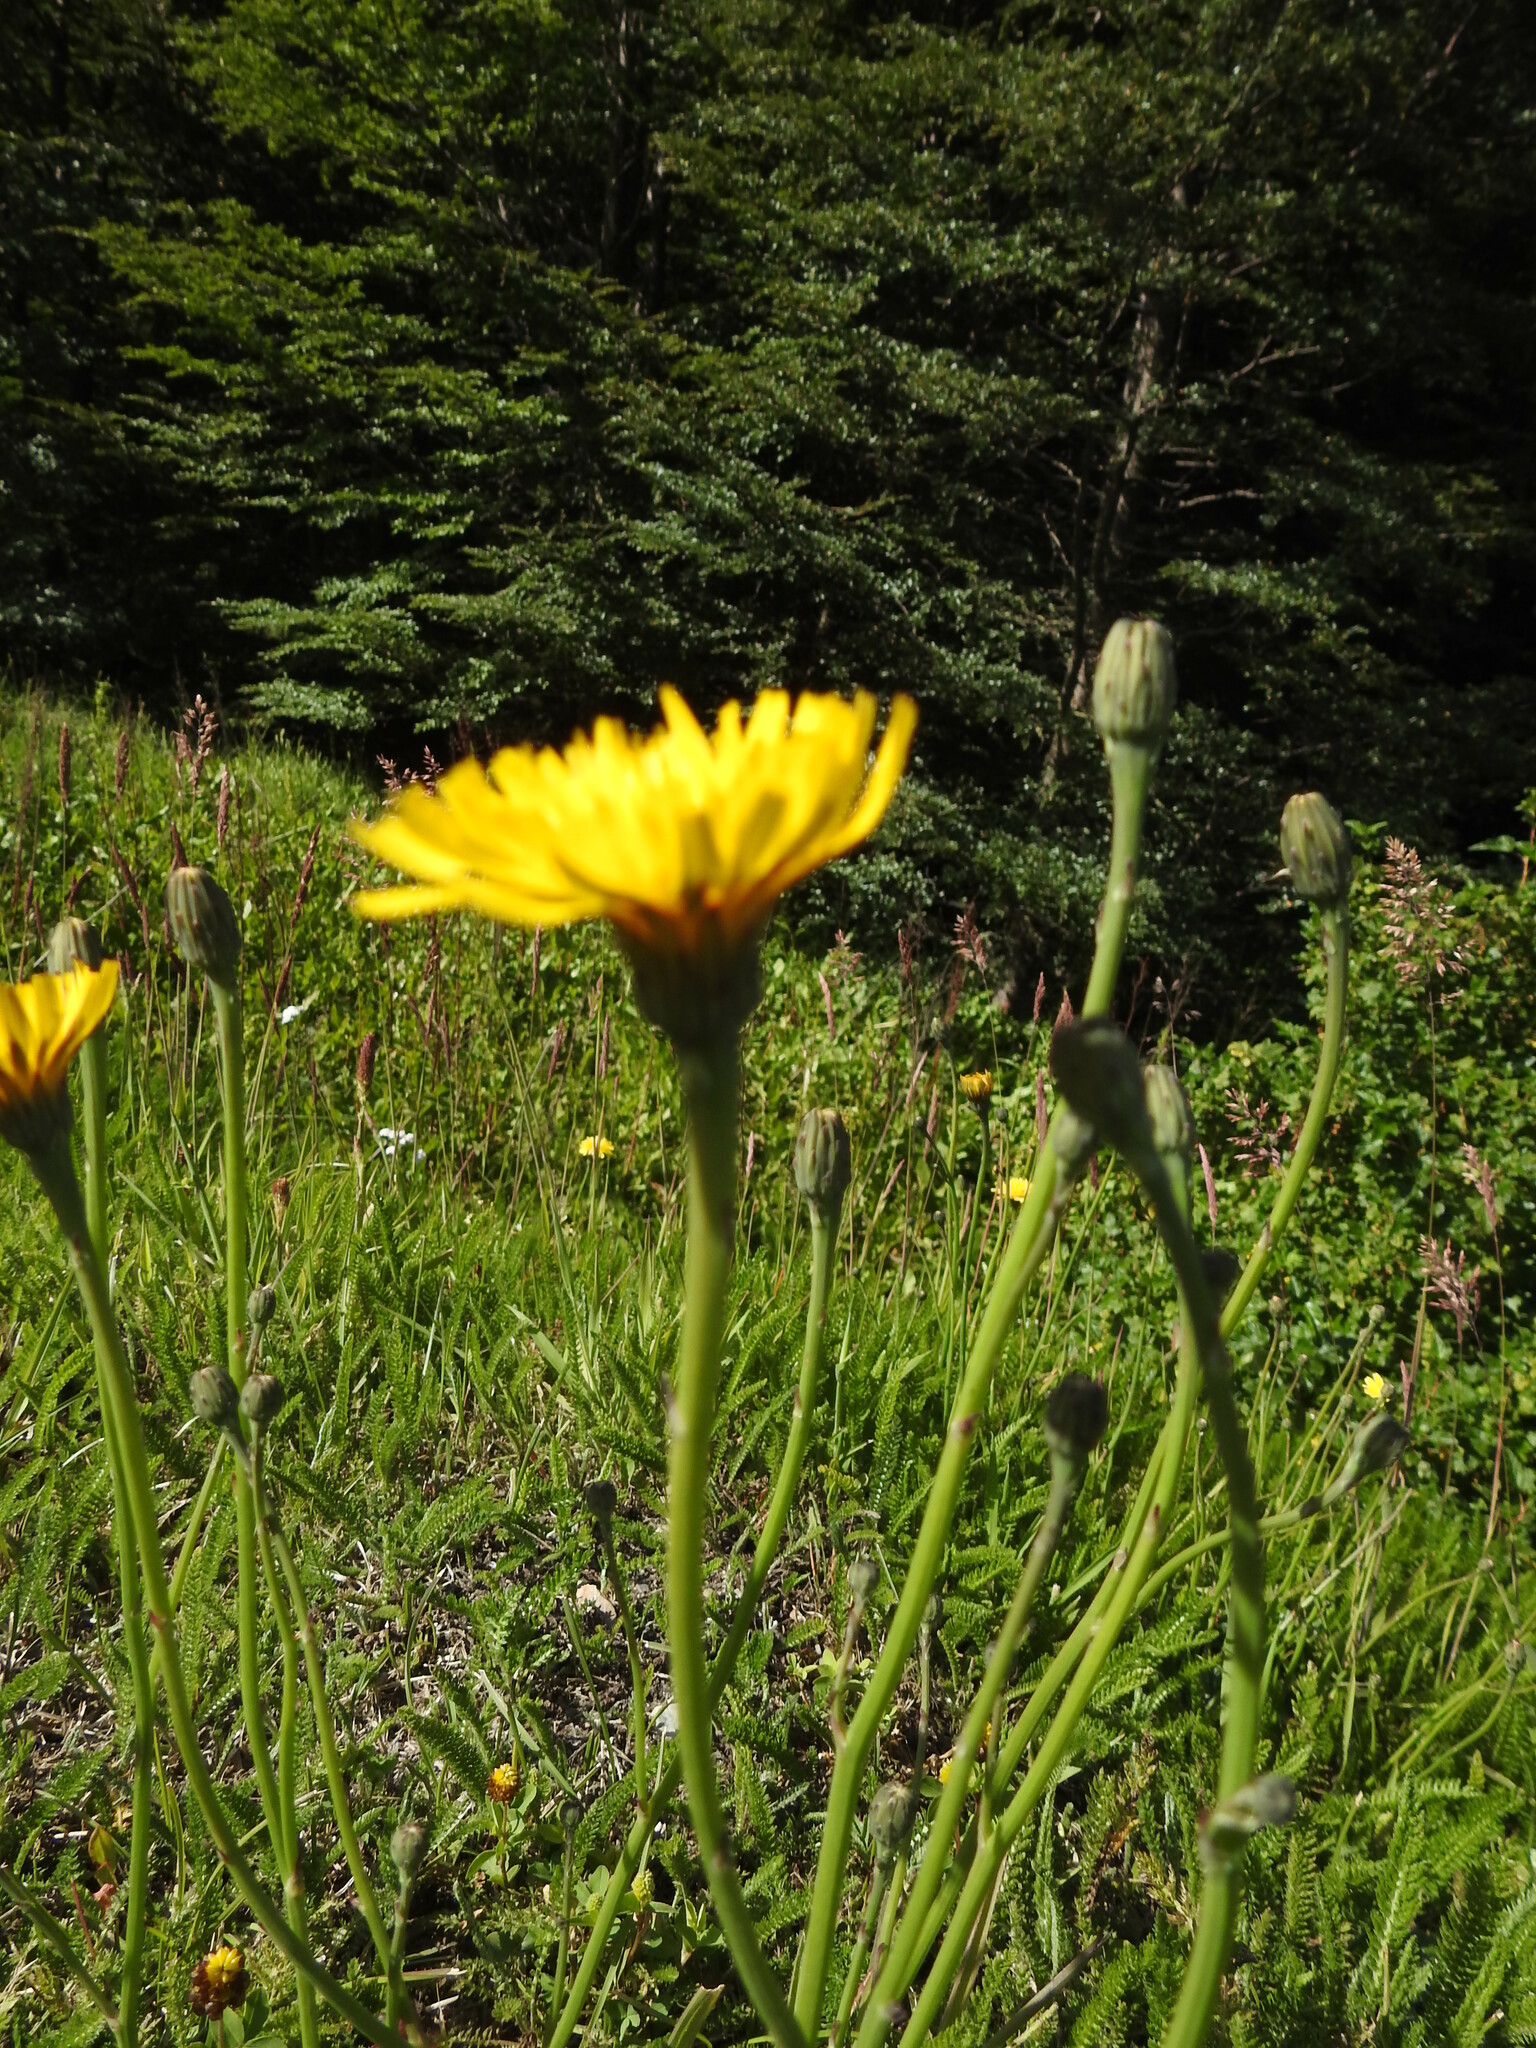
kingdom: Plantae
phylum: Tracheophyta
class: Magnoliopsida
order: Asterales
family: Asteraceae
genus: Hypochaeris
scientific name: Hypochaeris radicata
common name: Flatweed
